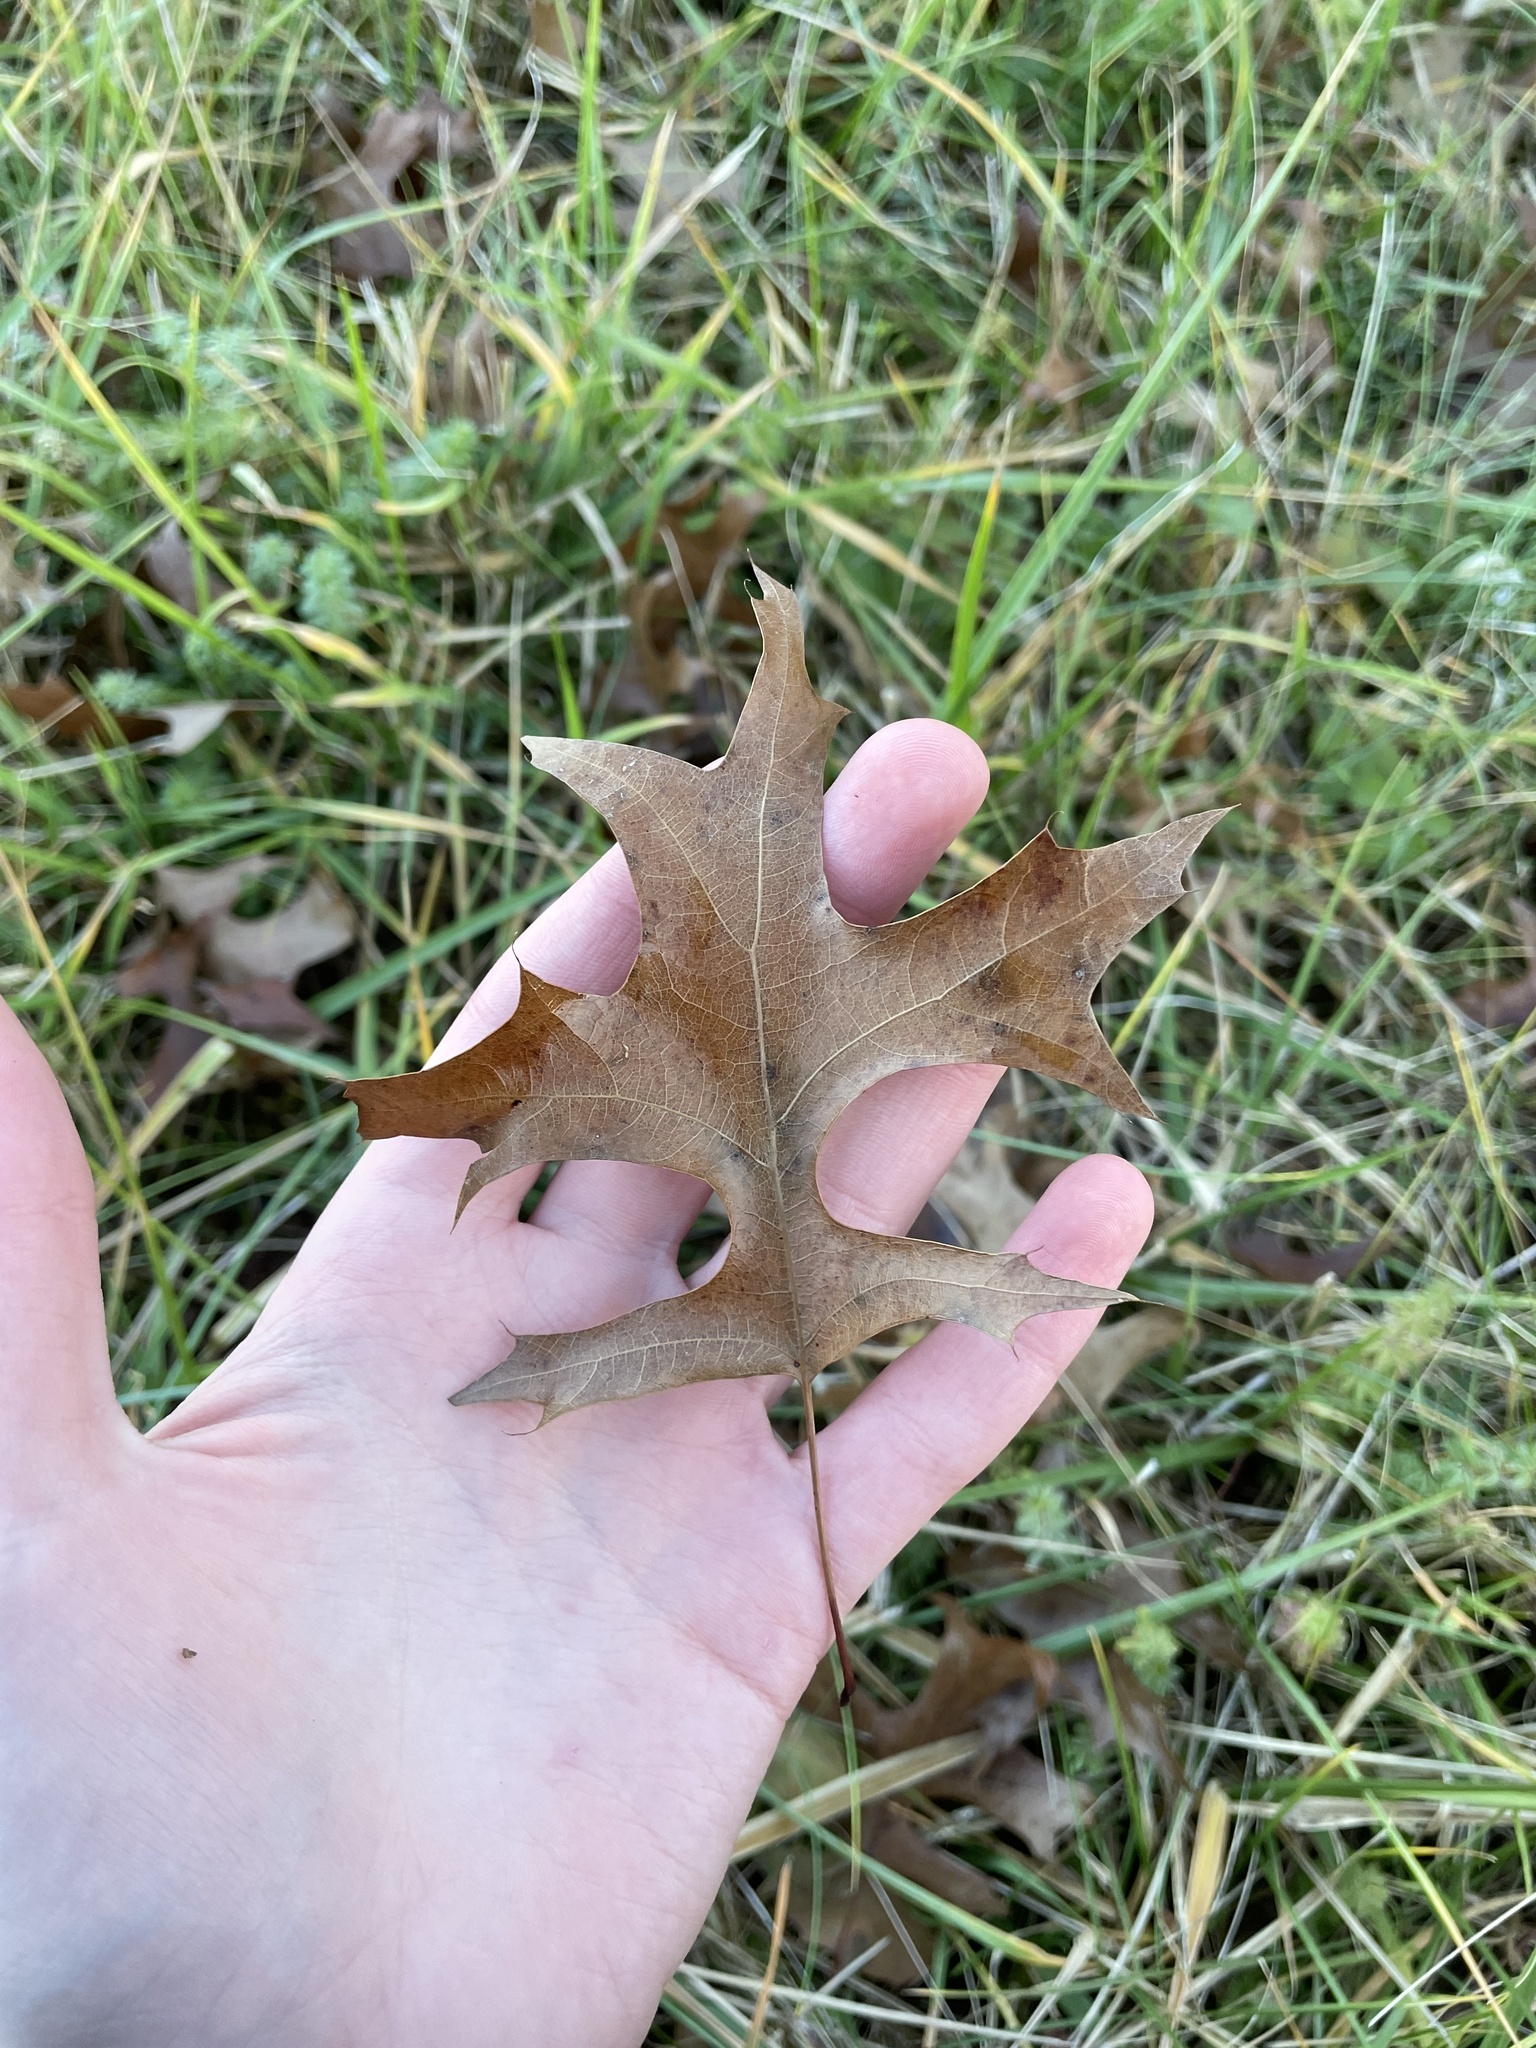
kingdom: Plantae
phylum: Tracheophyta
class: Magnoliopsida
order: Fagales
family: Fagaceae
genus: Quercus
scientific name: Quercus palustris
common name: Pin oak
